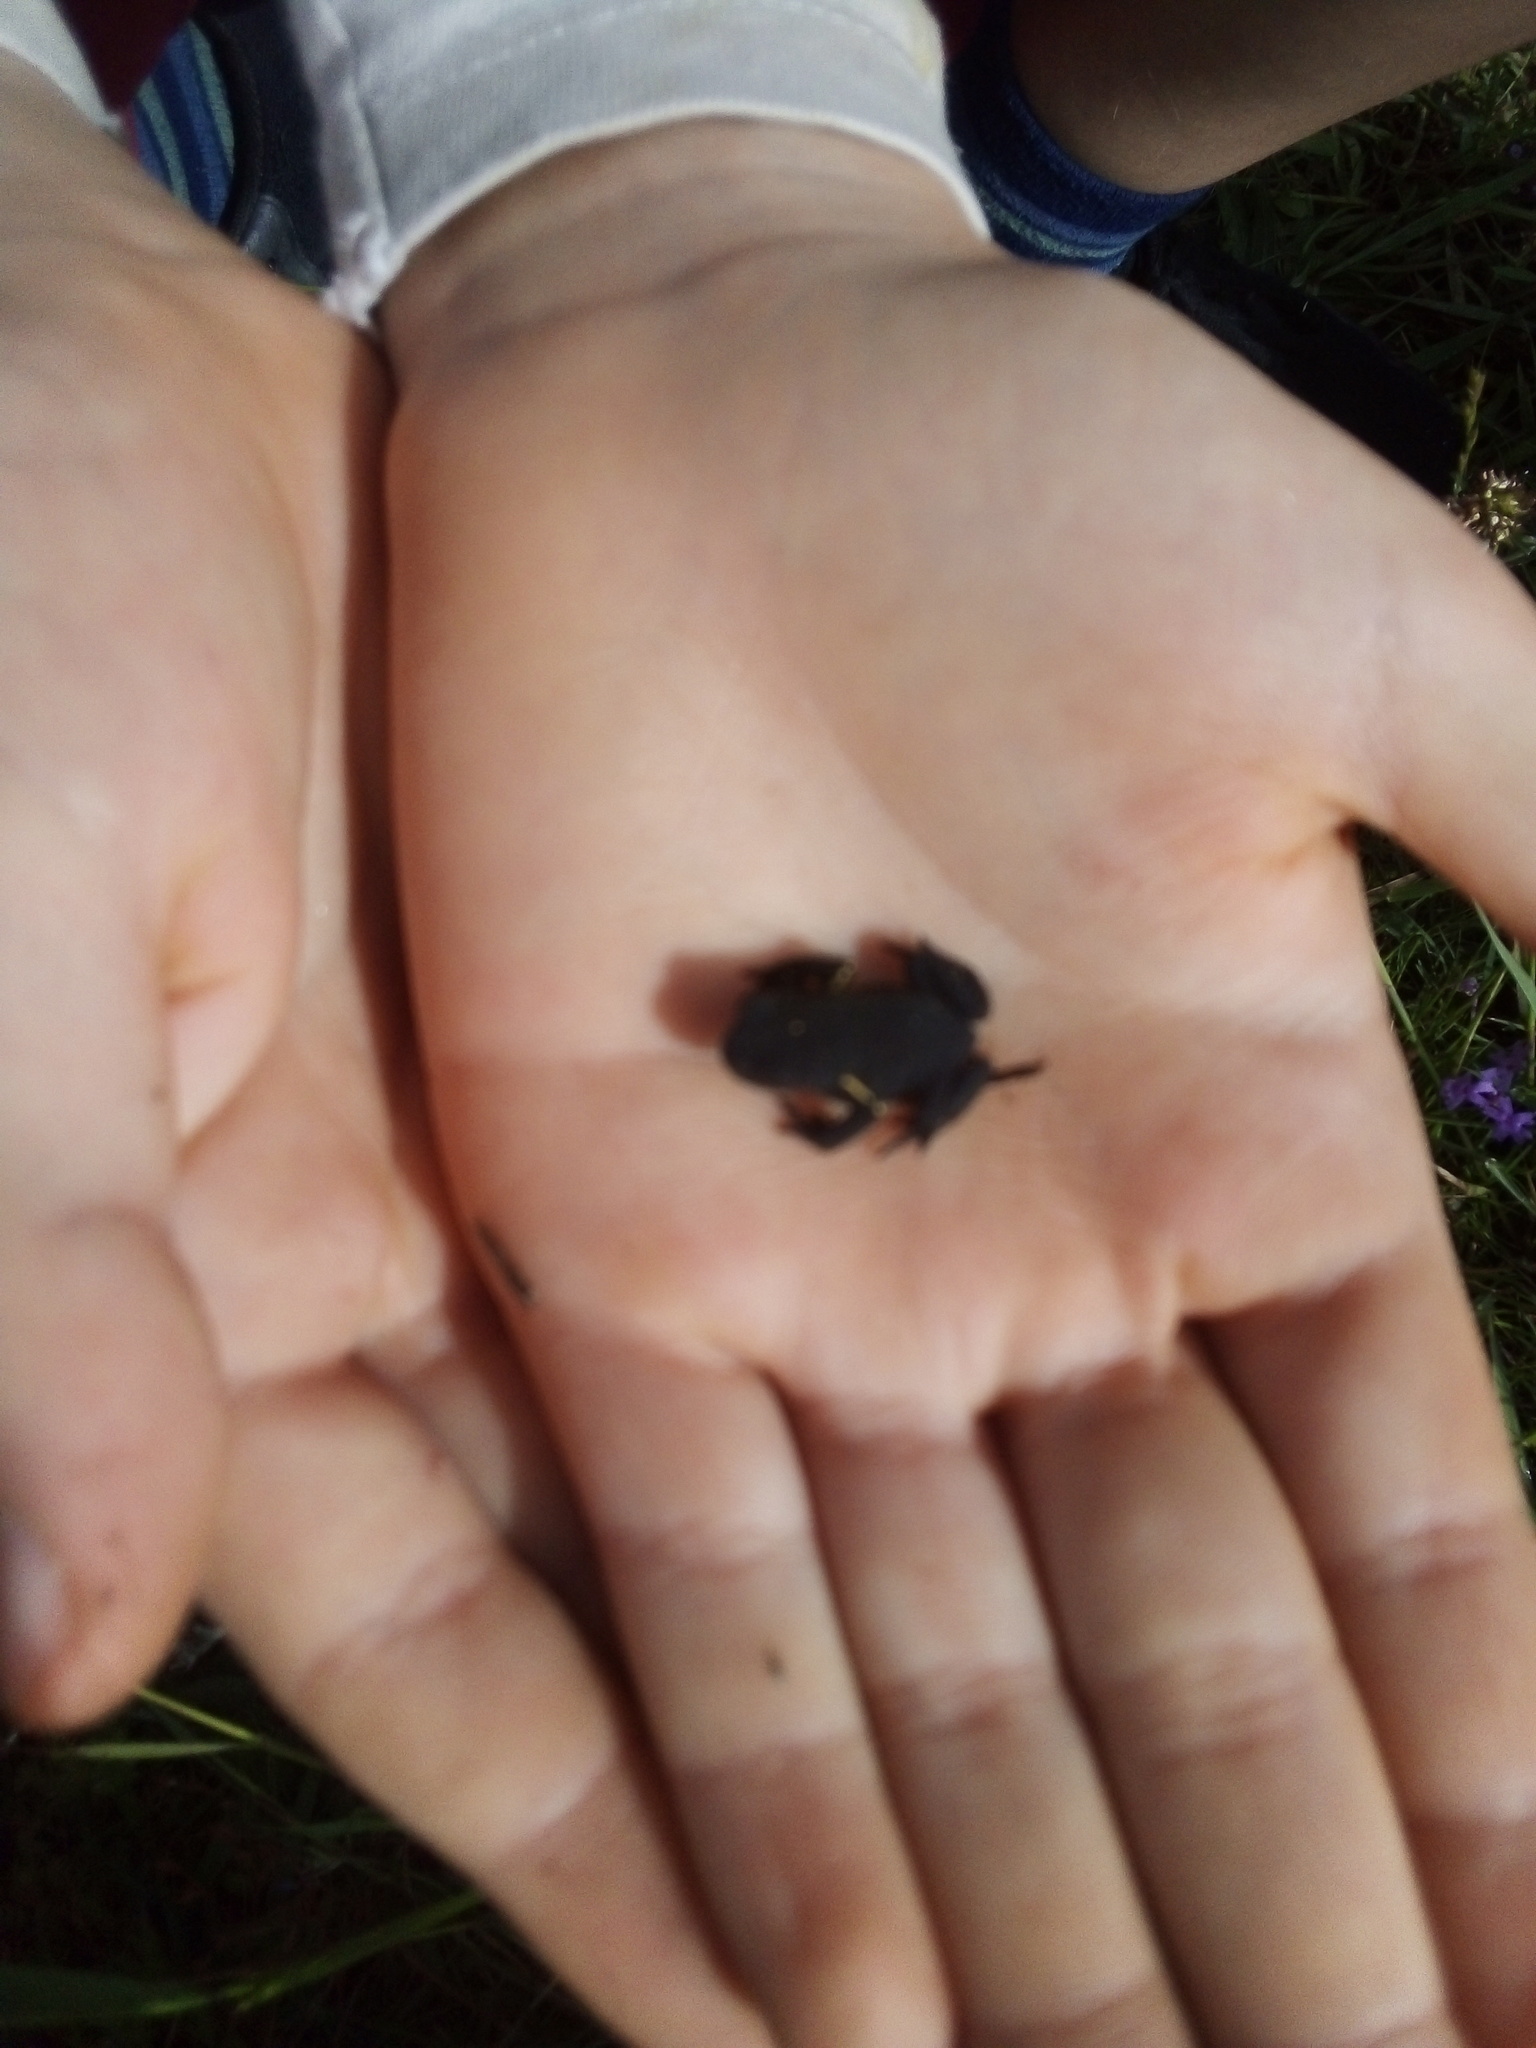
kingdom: Animalia
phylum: Chordata
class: Amphibia
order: Anura
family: Bufonidae
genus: Melanophryniscus
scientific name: Melanophryniscus montevidensis
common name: Montevideo redbelly toad
